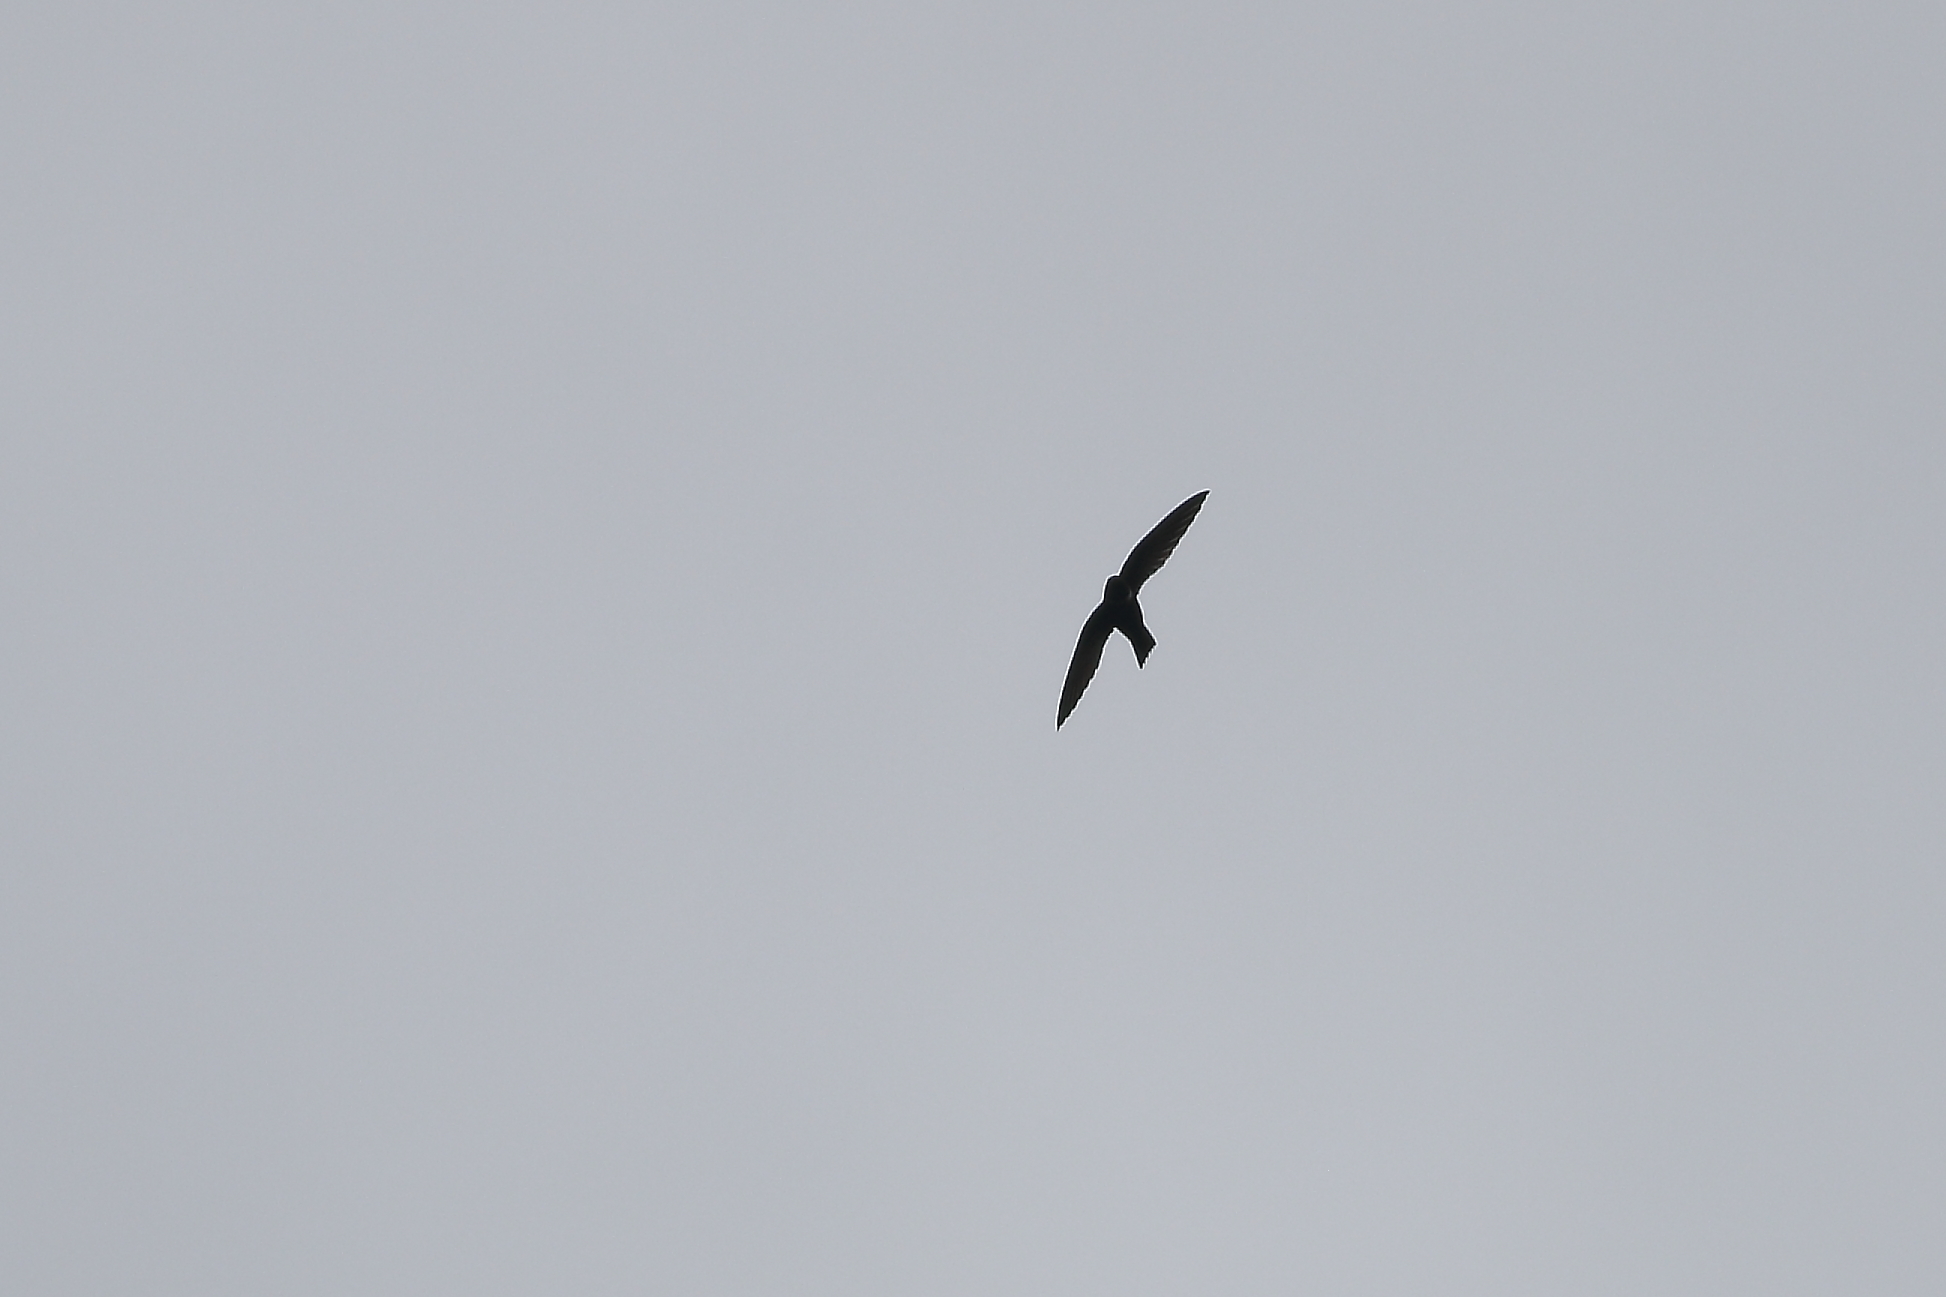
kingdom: Animalia
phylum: Chordata
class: Aves
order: Apodiformes
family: Apodidae
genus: Streptoprocne
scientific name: Streptoprocne zonaris
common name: White-collared swift
